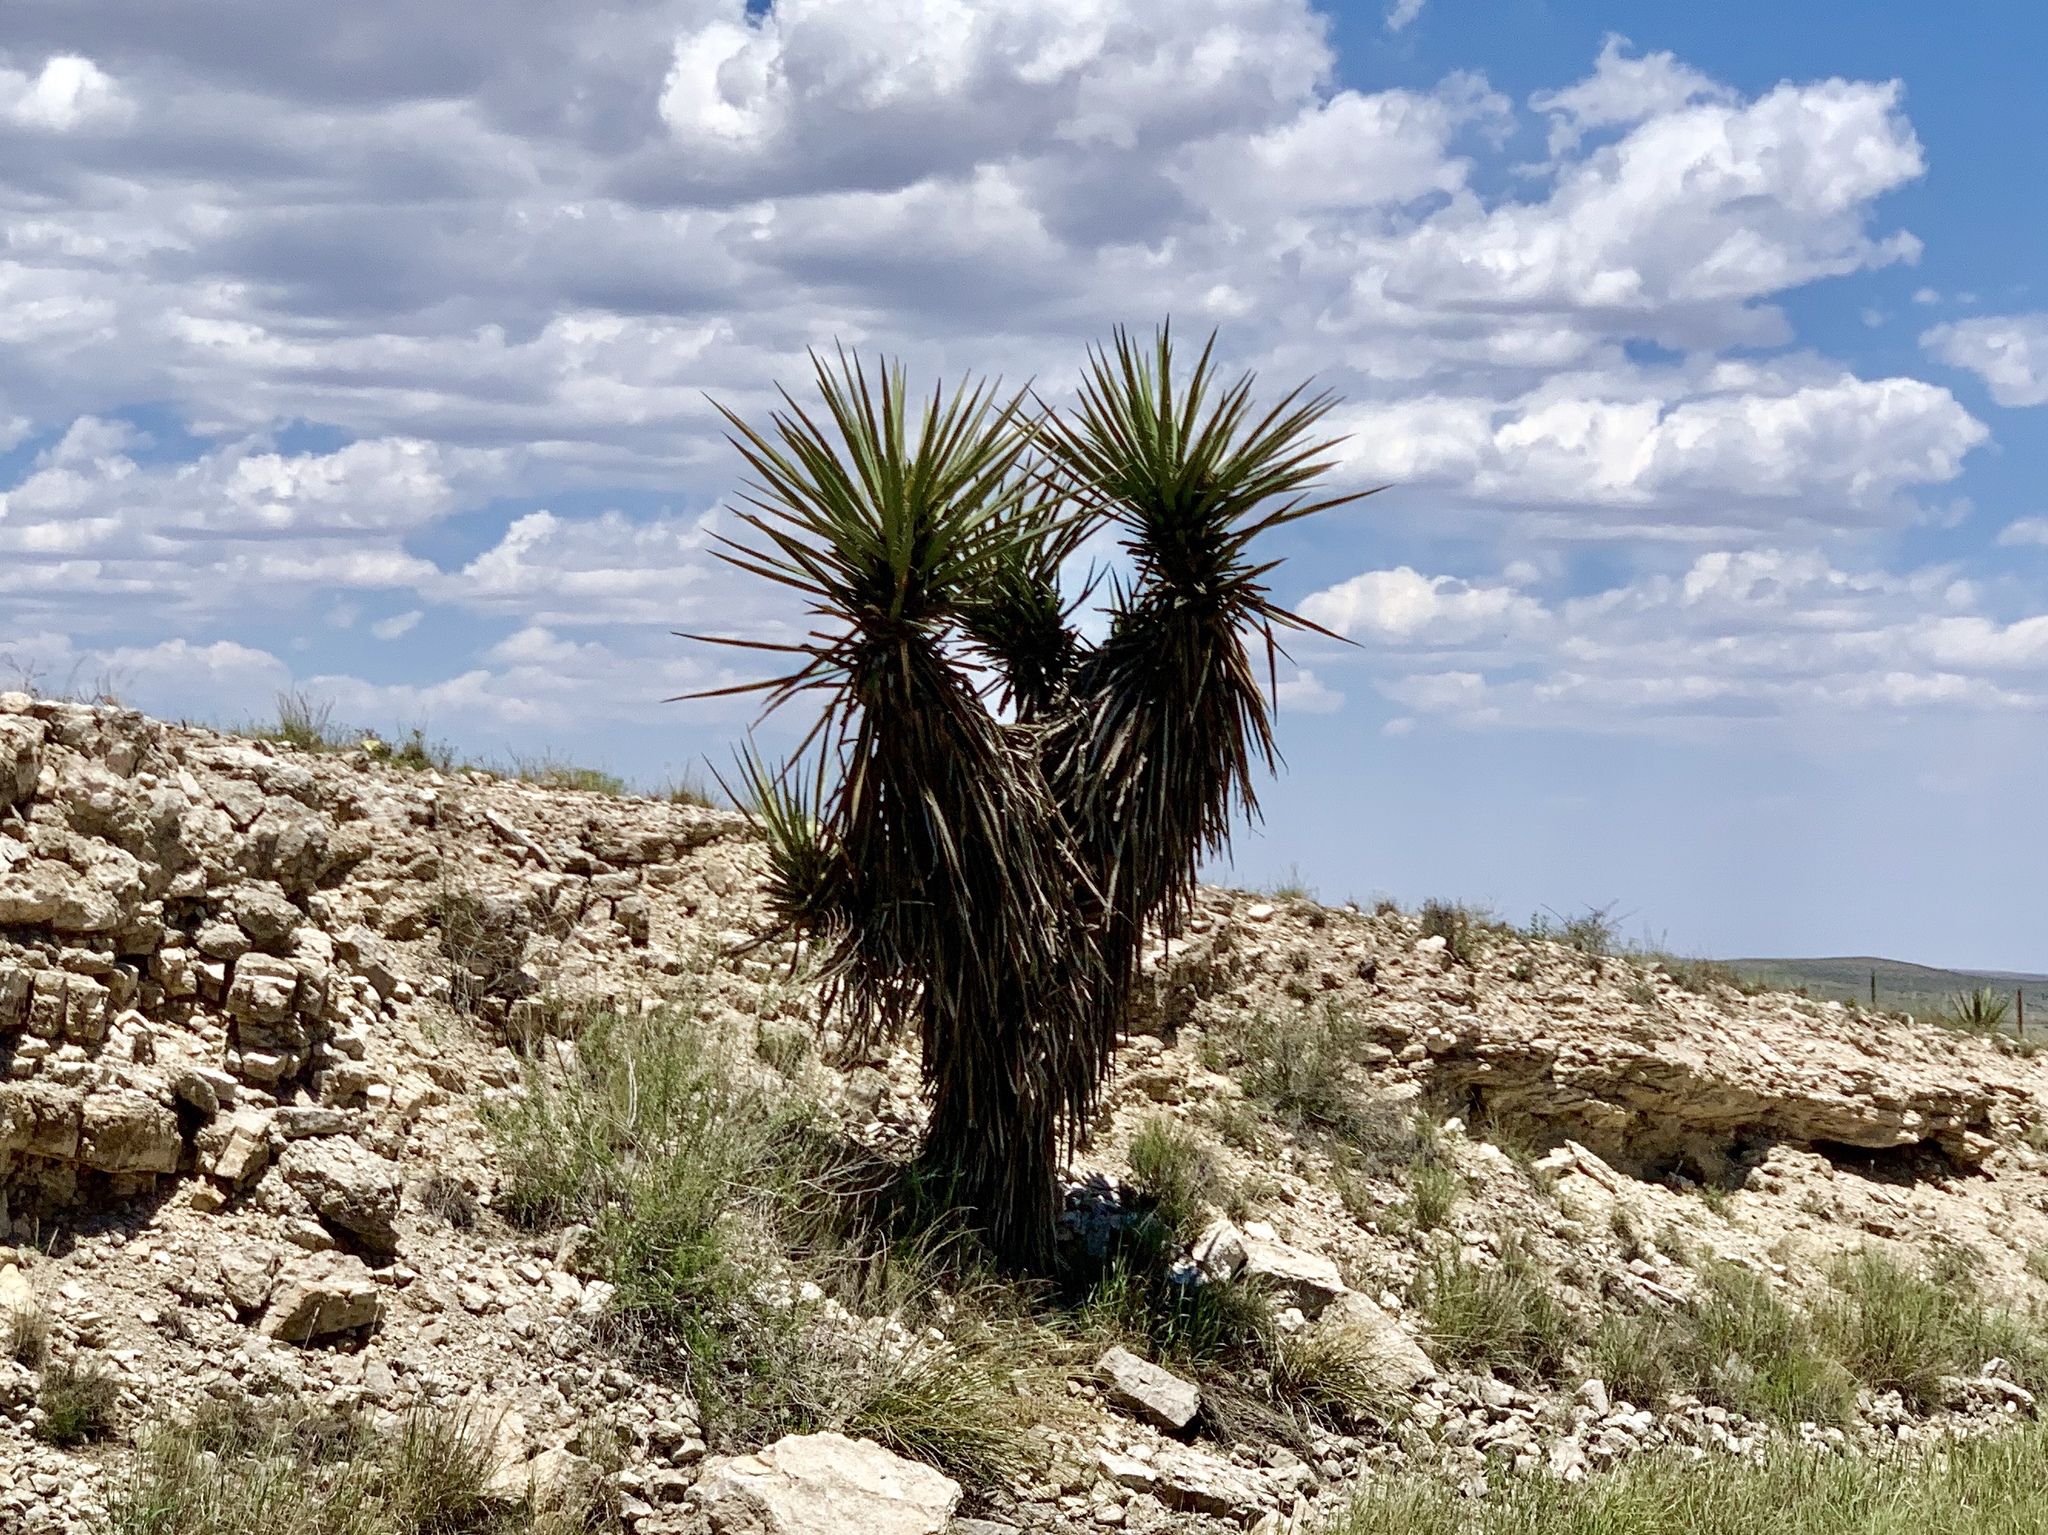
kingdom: Plantae
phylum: Tracheophyta
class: Liliopsida
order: Asparagales
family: Asparagaceae
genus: Yucca
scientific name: Yucca treculiana
